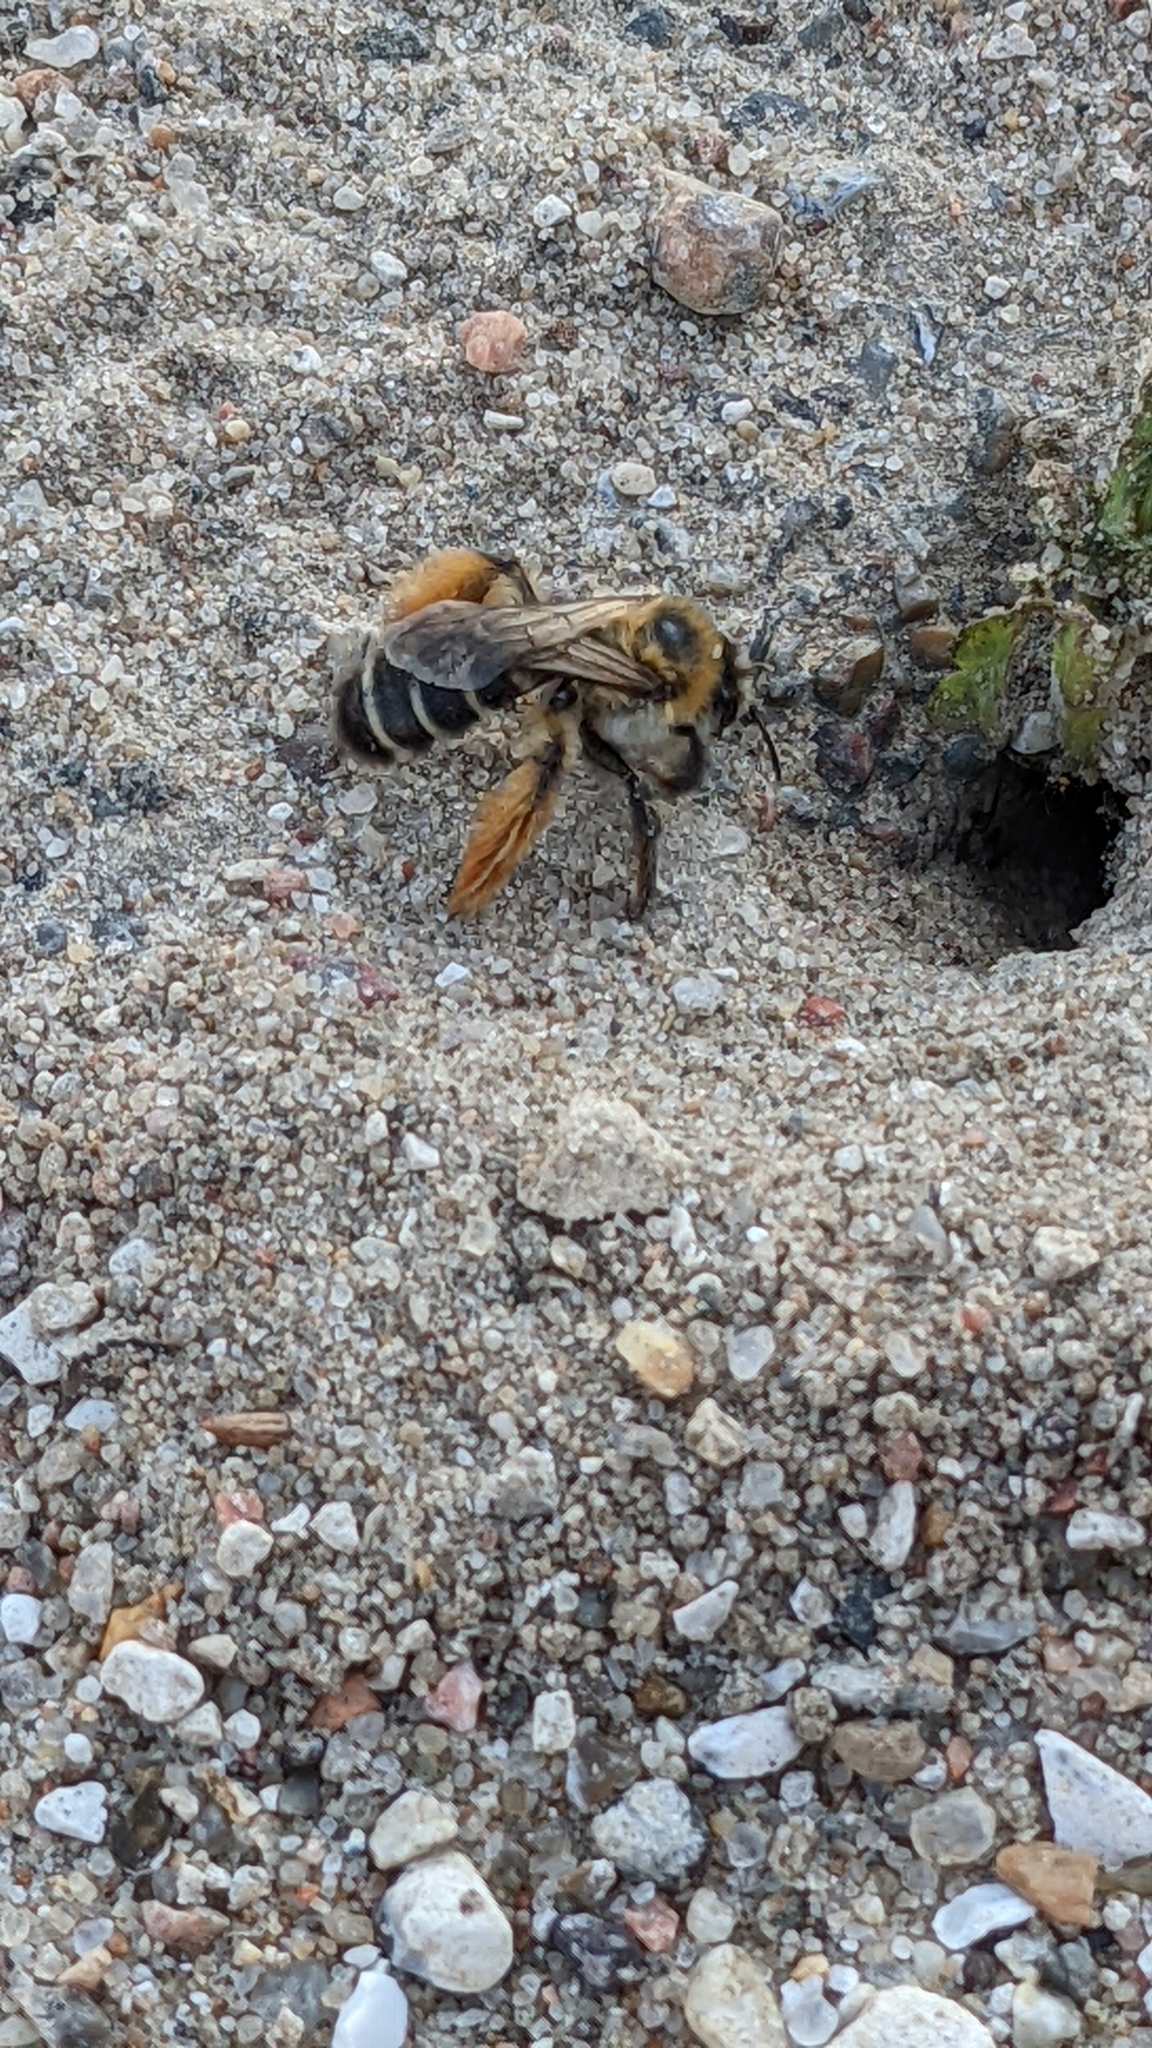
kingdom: Animalia
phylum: Arthropoda
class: Insecta
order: Hymenoptera
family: Melittidae
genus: Dasypoda
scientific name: Dasypoda hirtipes
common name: Pantaloon bee
